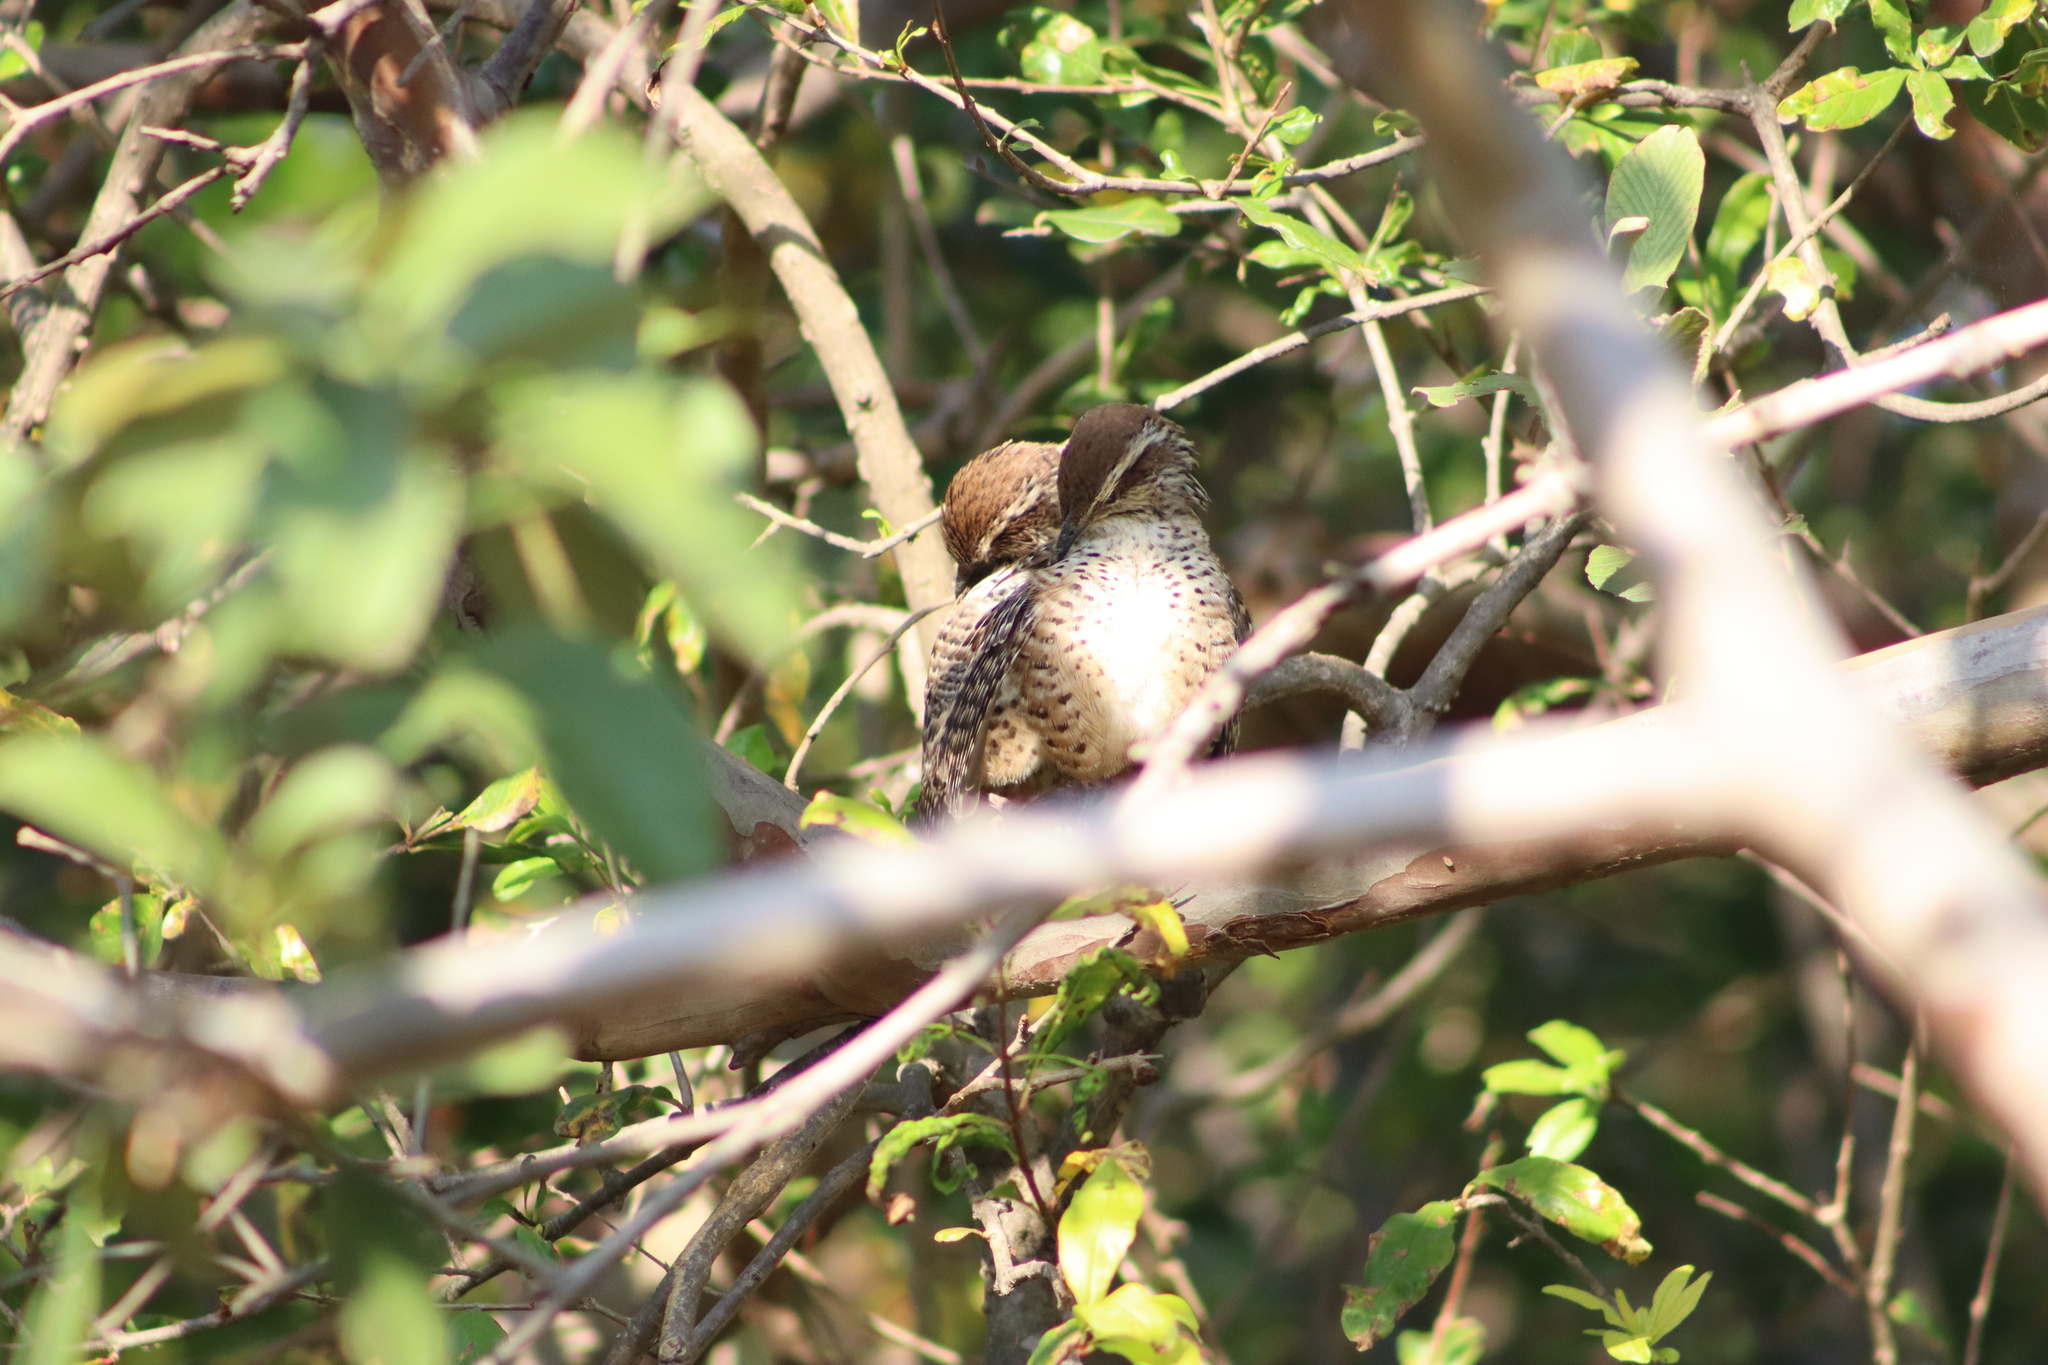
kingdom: Animalia
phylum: Chordata
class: Aves
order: Passeriformes
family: Troglodytidae
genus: Campylorhynchus
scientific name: Campylorhynchus gularis
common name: Spotted wren
